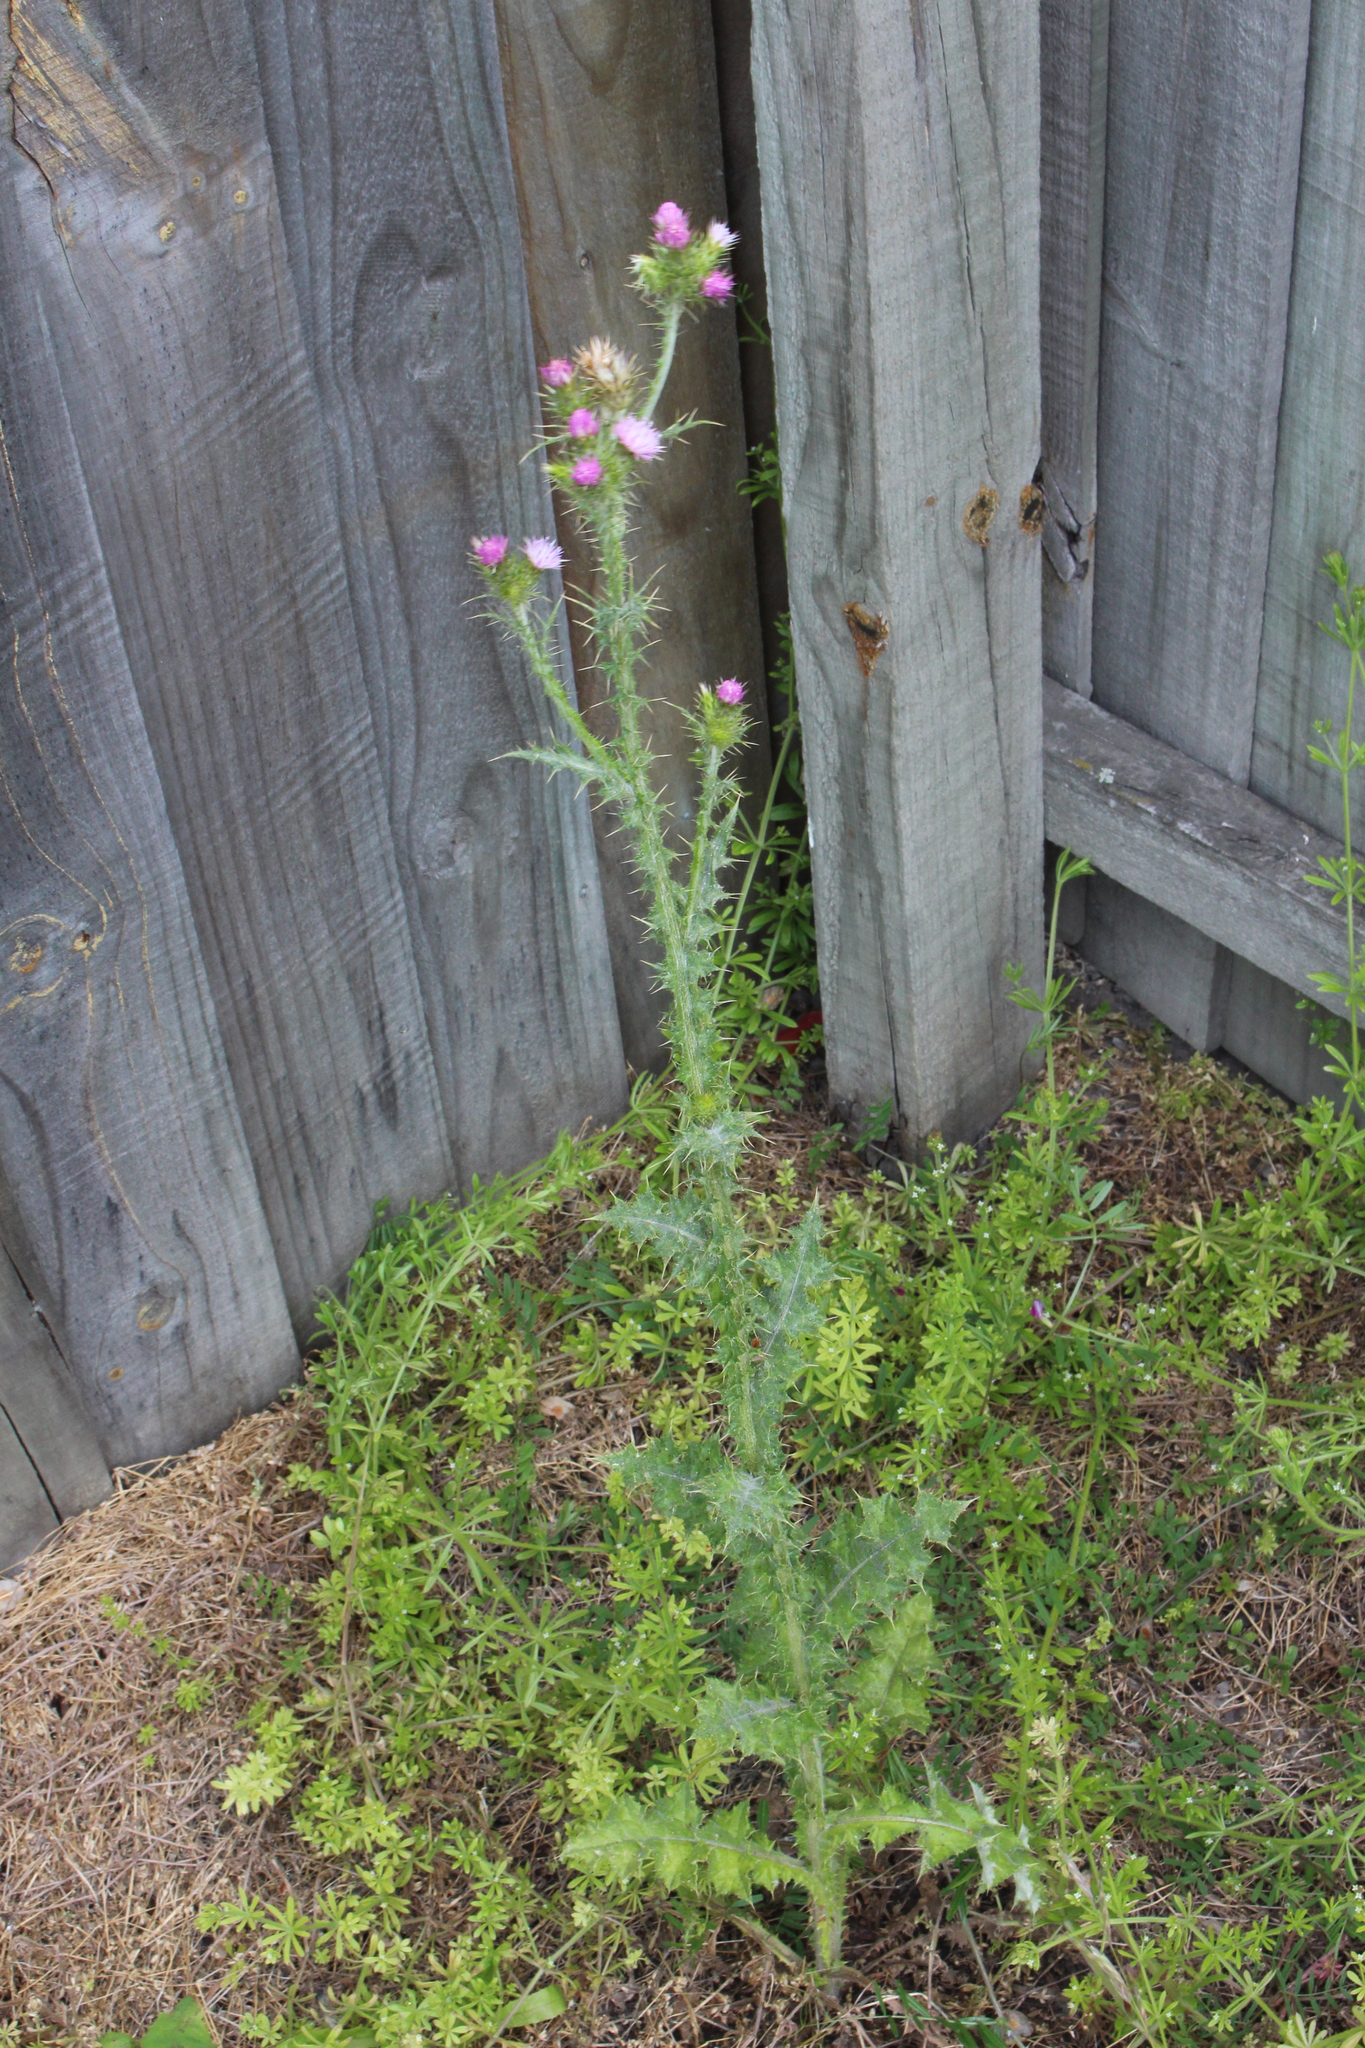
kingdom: Plantae
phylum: Tracheophyta
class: Magnoliopsida
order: Asterales
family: Asteraceae
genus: Carduus
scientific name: Carduus pycnocephalus
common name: Plymouth thistle
